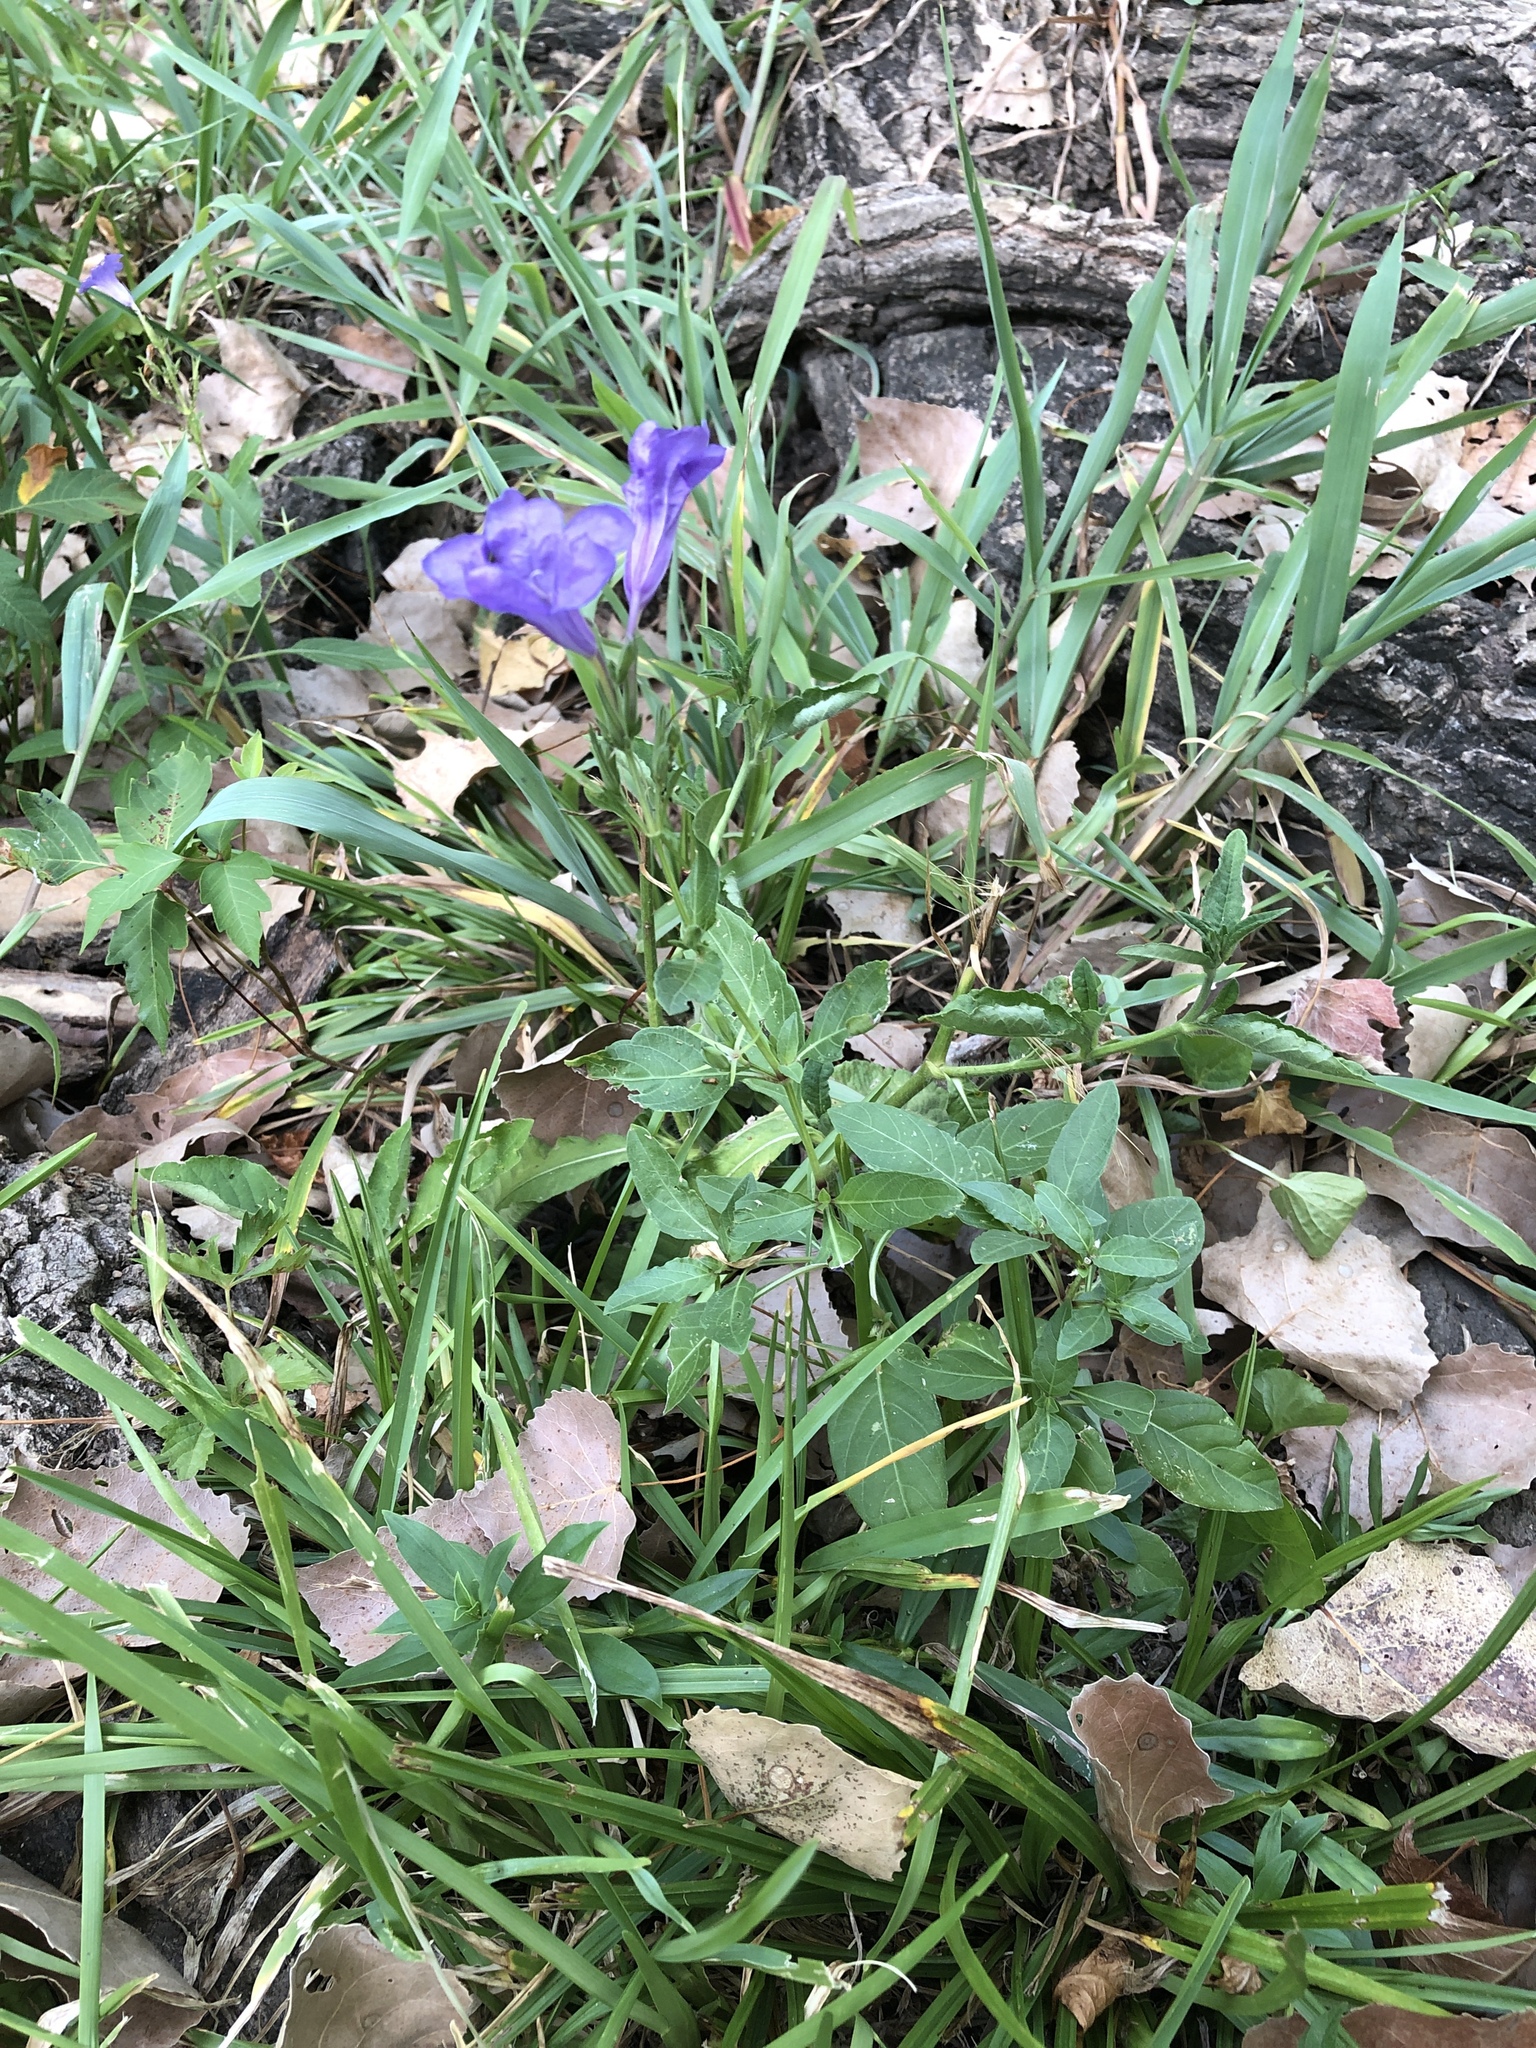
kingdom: Plantae
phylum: Tracheophyta
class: Magnoliopsida
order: Lamiales
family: Acanthaceae
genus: Ruellia
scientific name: Ruellia ciliatiflora
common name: Hairyflower wild petunia
